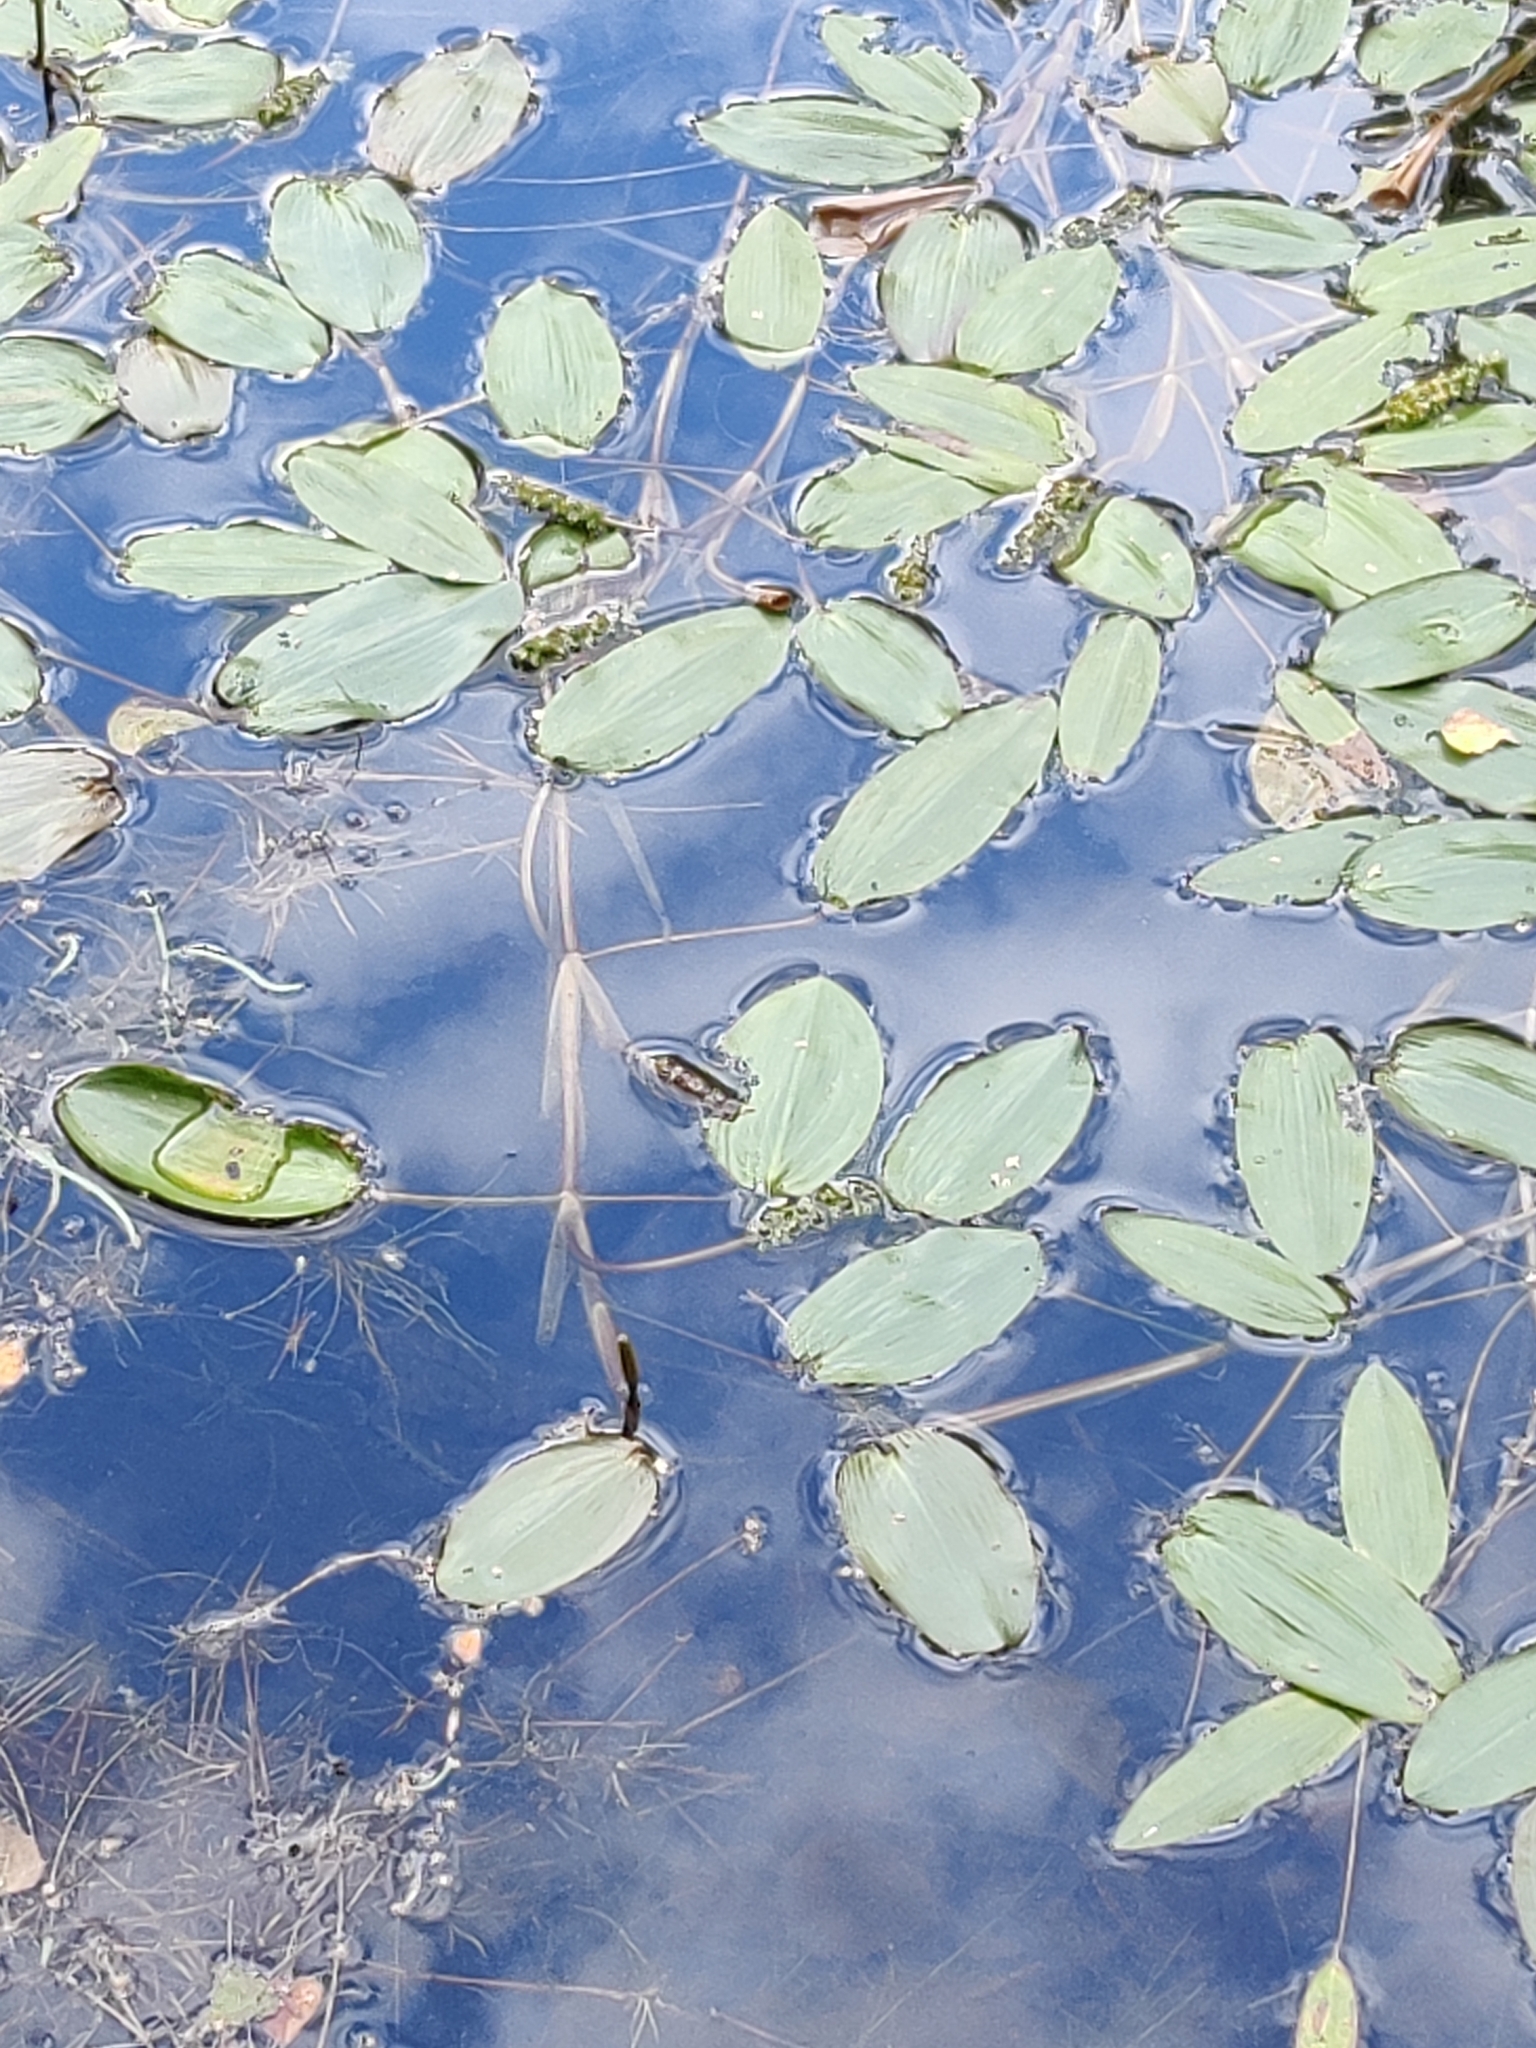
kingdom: Plantae
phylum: Tracheophyta
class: Liliopsida
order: Alismatales
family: Potamogetonaceae
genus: Potamogeton
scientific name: Potamogeton natans
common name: Broad-leaved pondweed
